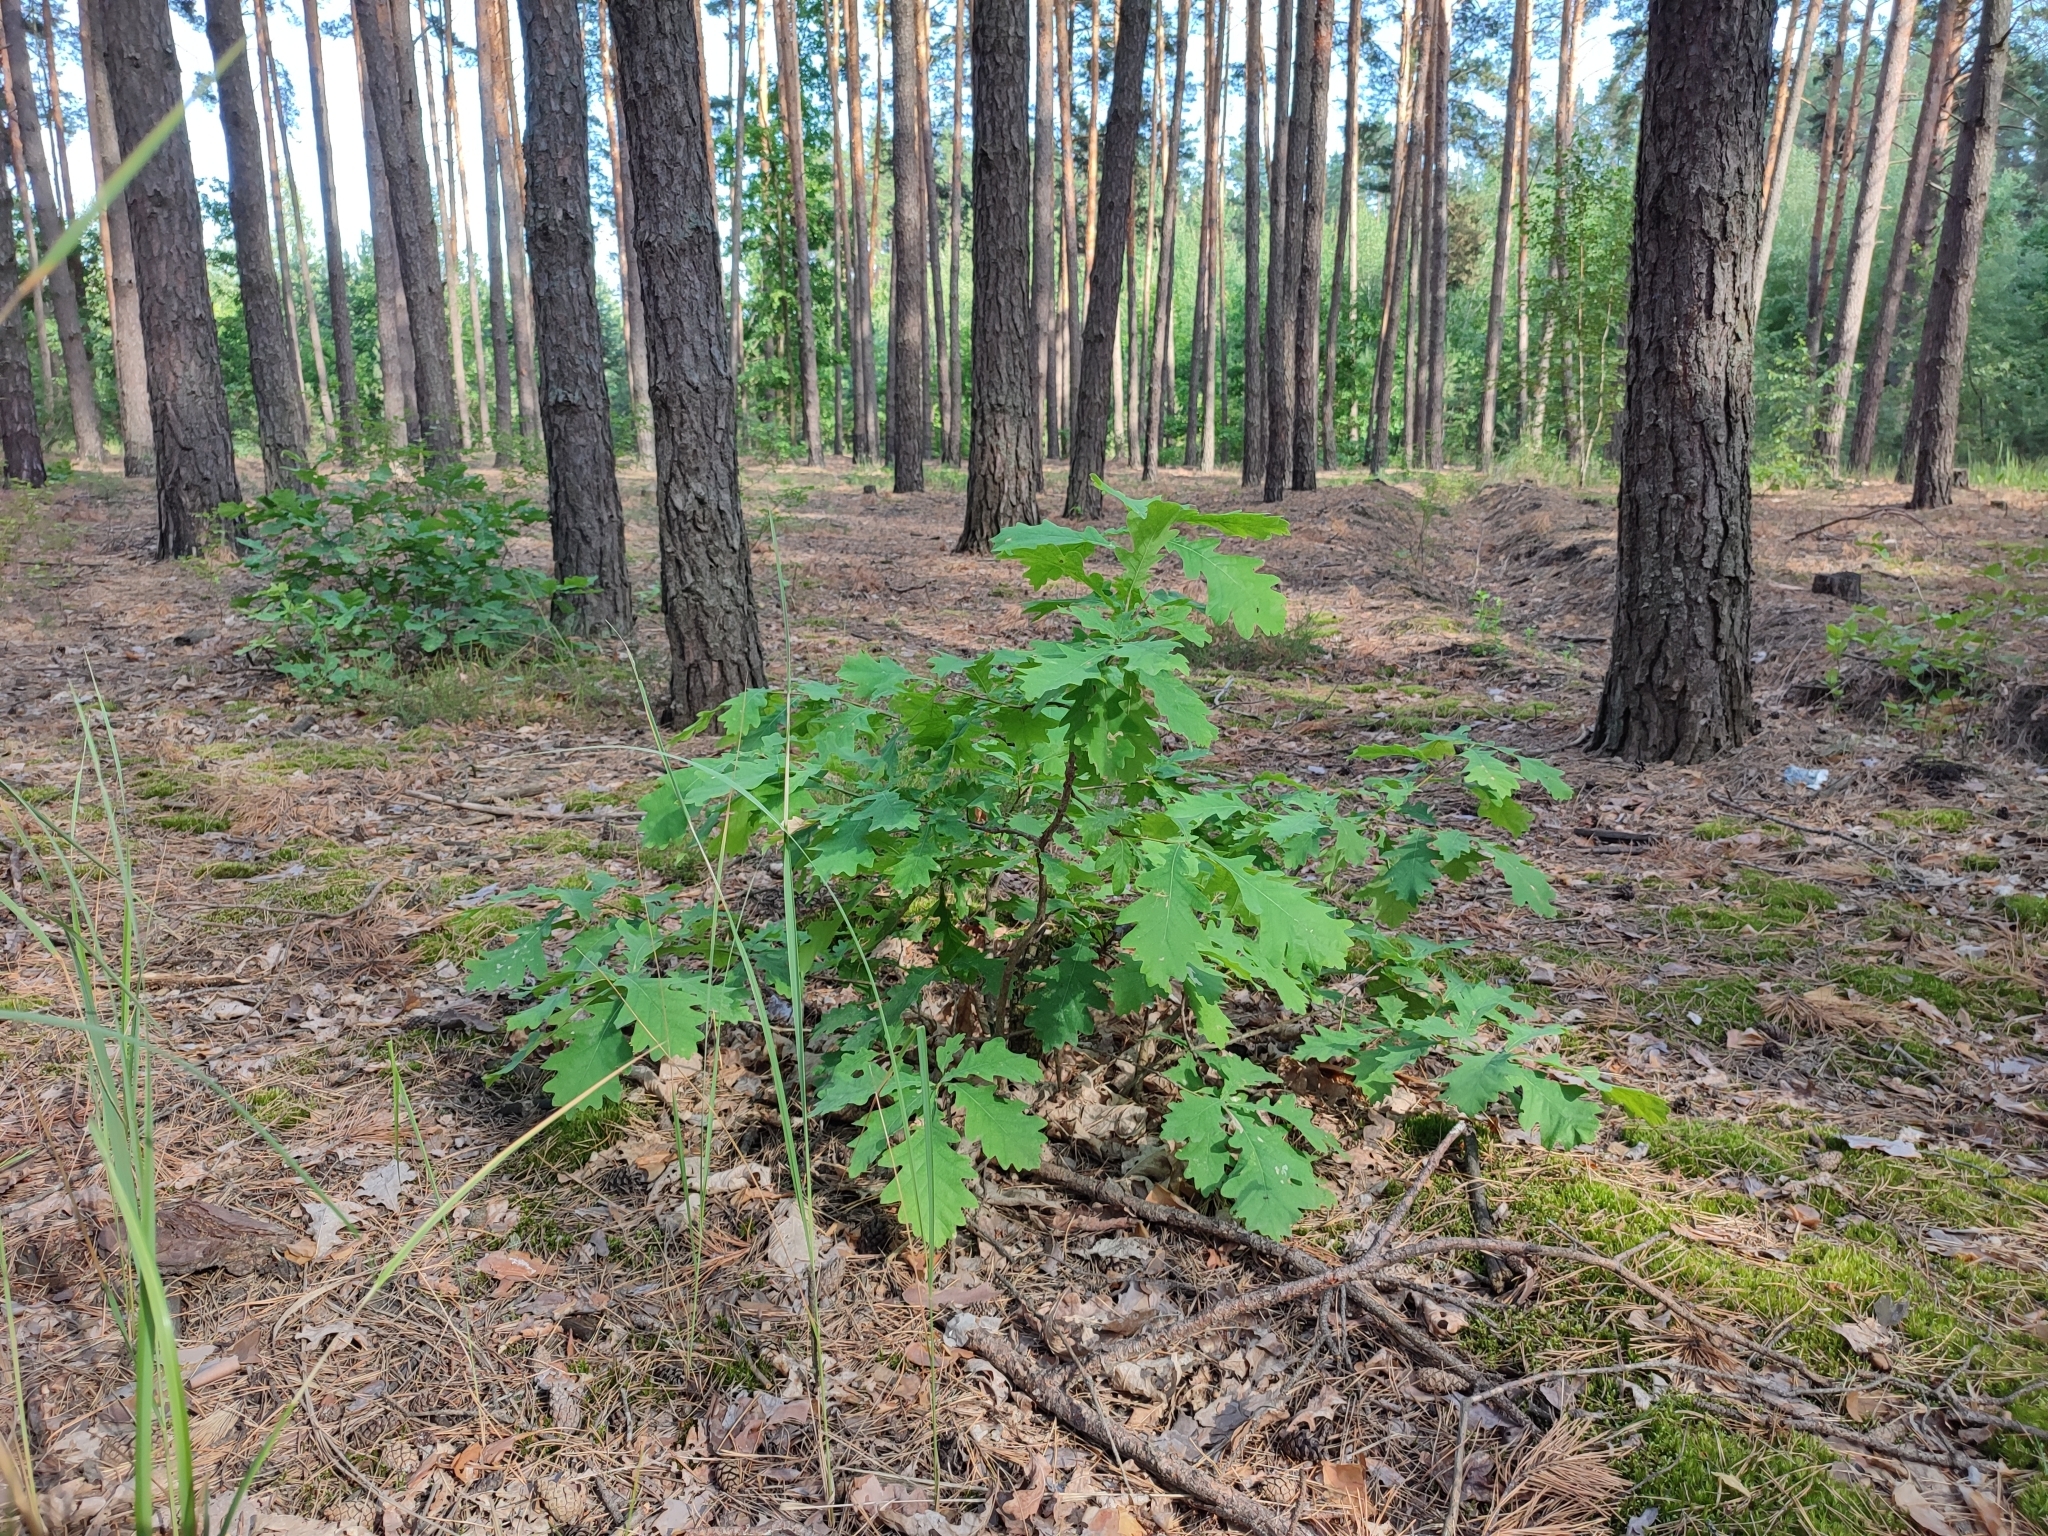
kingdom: Plantae
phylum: Tracheophyta
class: Magnoliopsida
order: Fagales
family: Fagaceae
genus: Quercus
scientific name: Quercus robur
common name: Pedunculate oak
